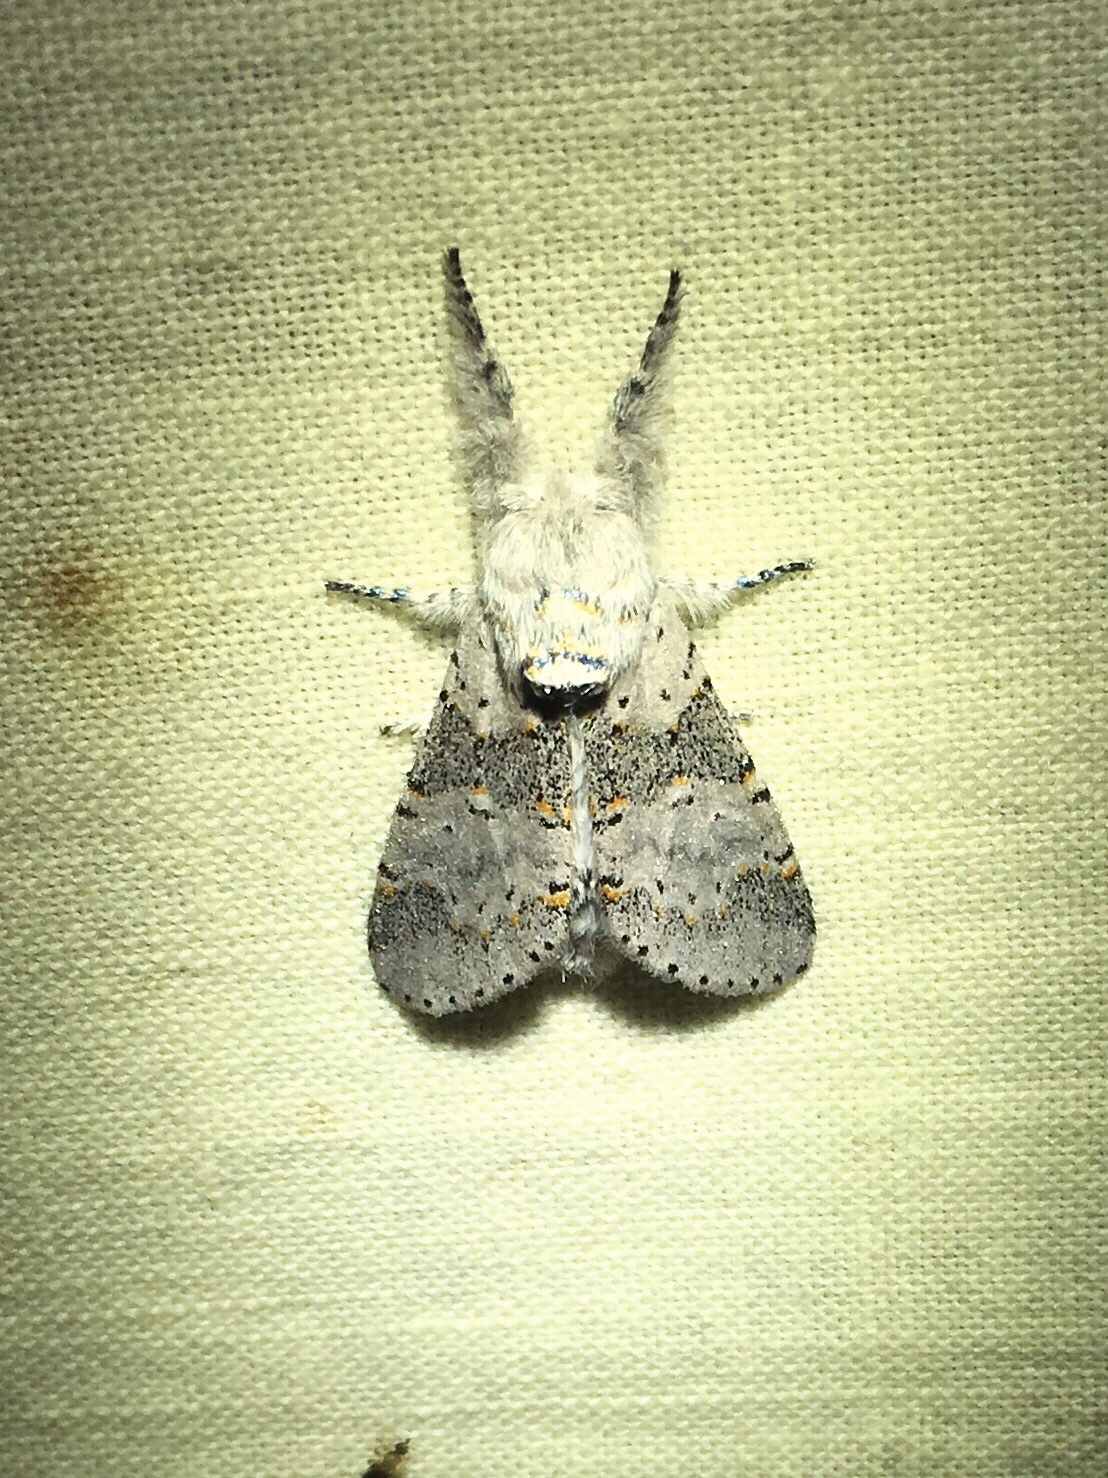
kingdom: Animalia
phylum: Arthropoda
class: Insecta
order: Lepidoptera
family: Notodontidae
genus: Furcula
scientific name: Furcula cinerea
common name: Gray furcula
